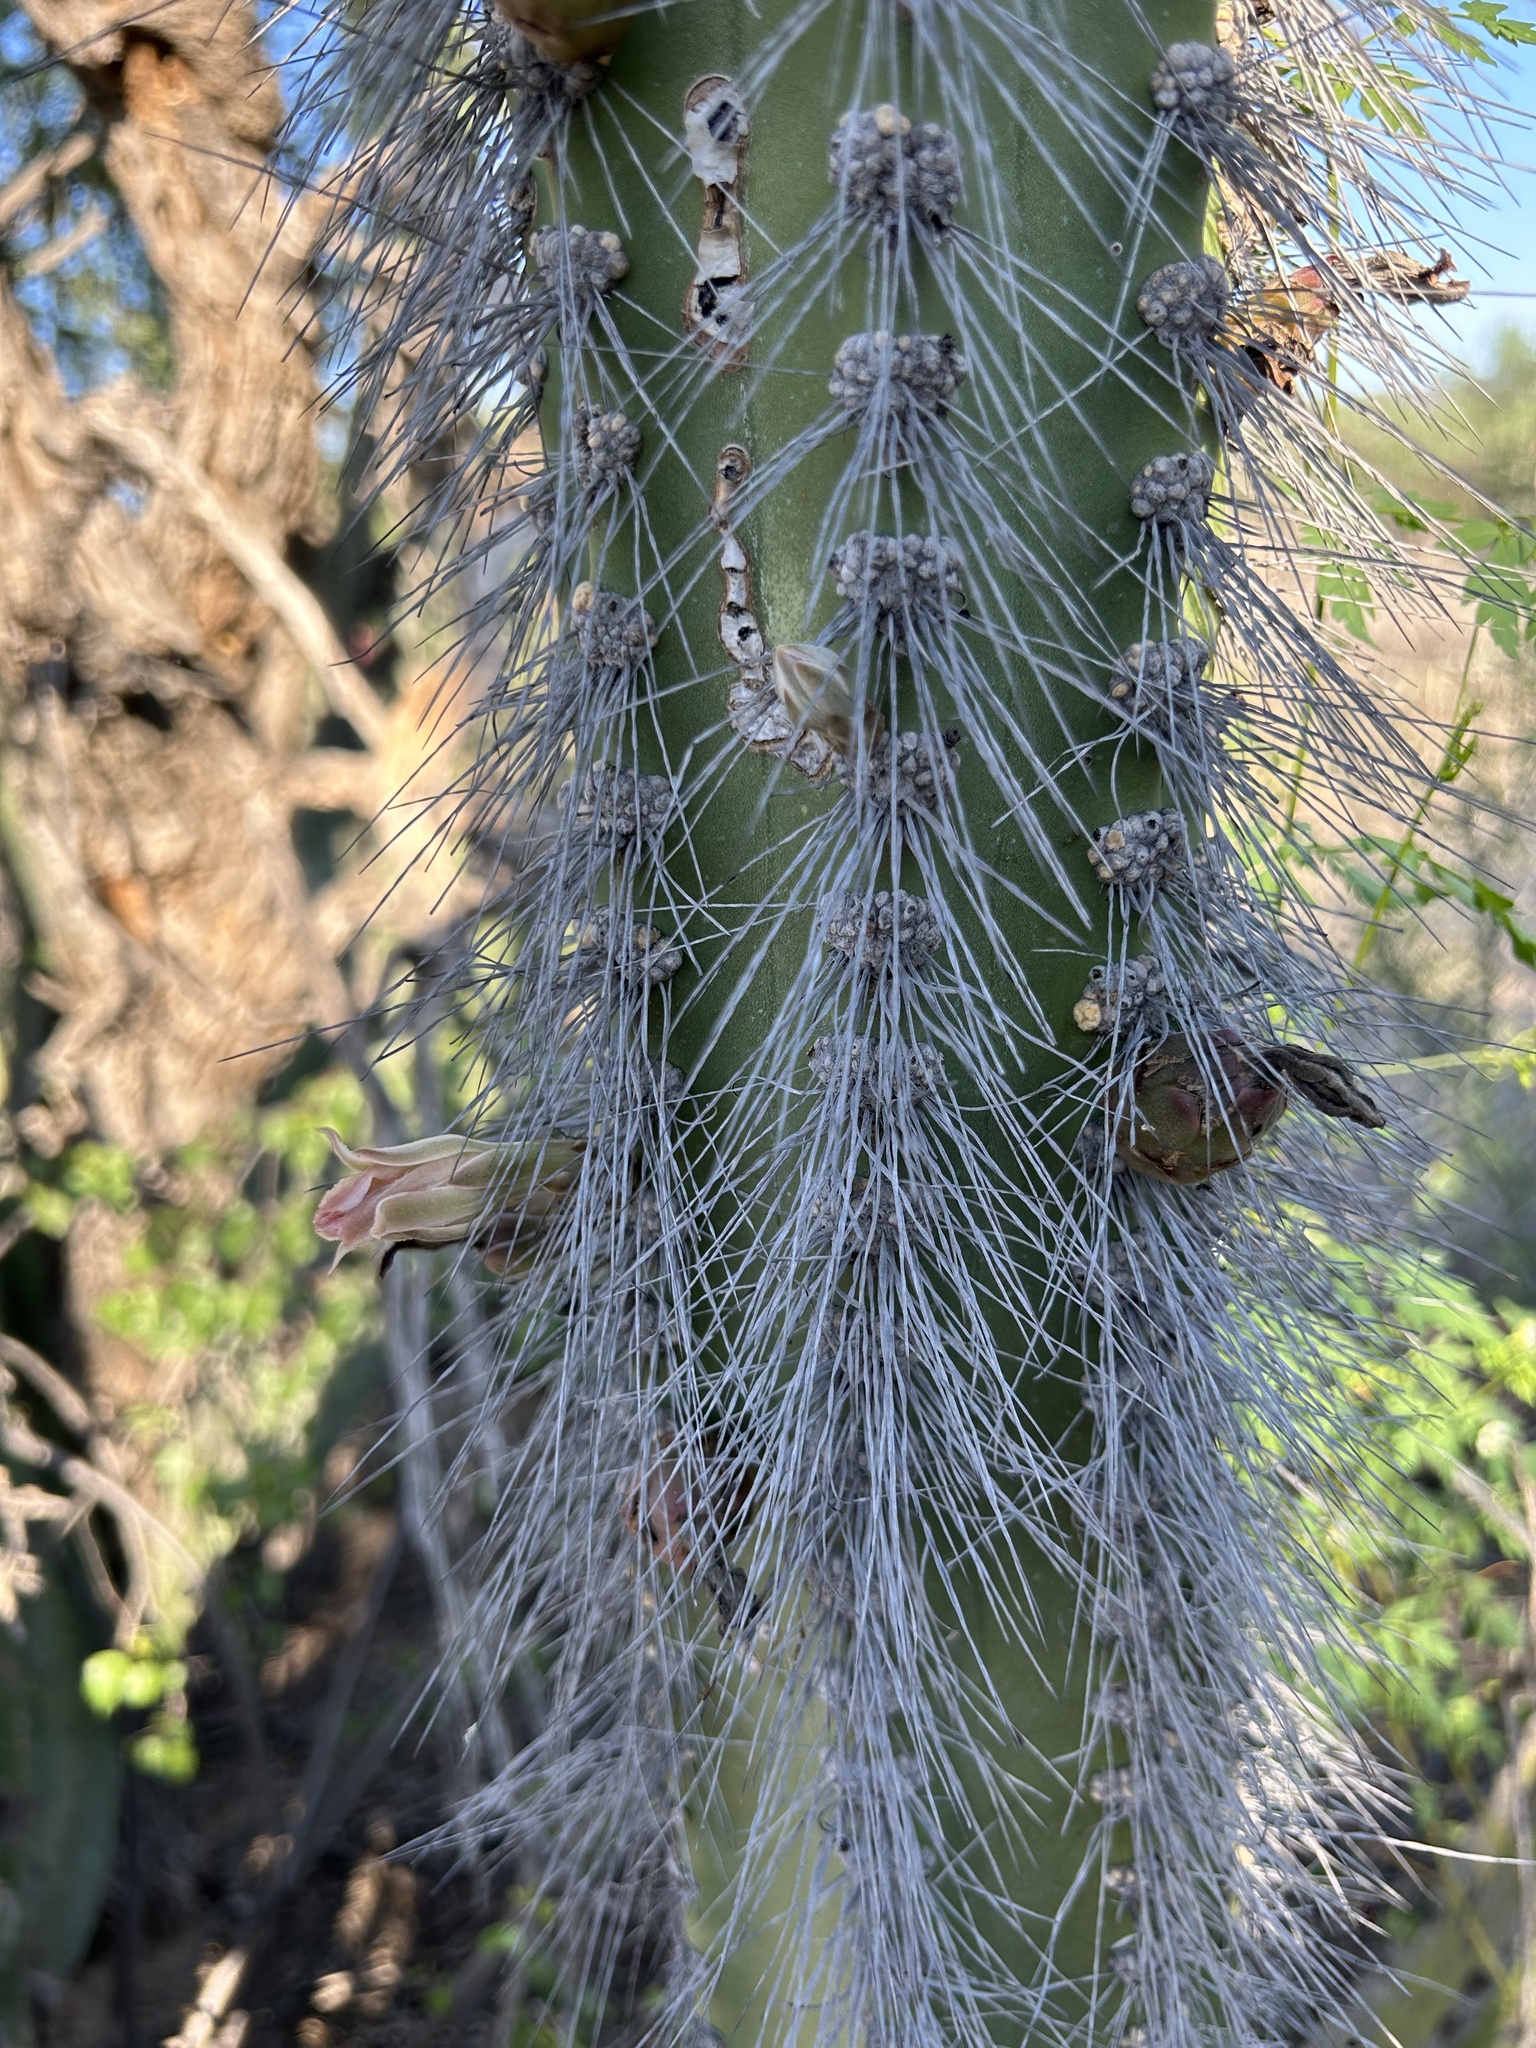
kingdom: Plantae
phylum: Tracheophyta
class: Magnoliopsida
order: Caryophyllales
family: Cactaceae
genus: Pachycereus
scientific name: Pachycereus schottii
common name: Senita cactus
